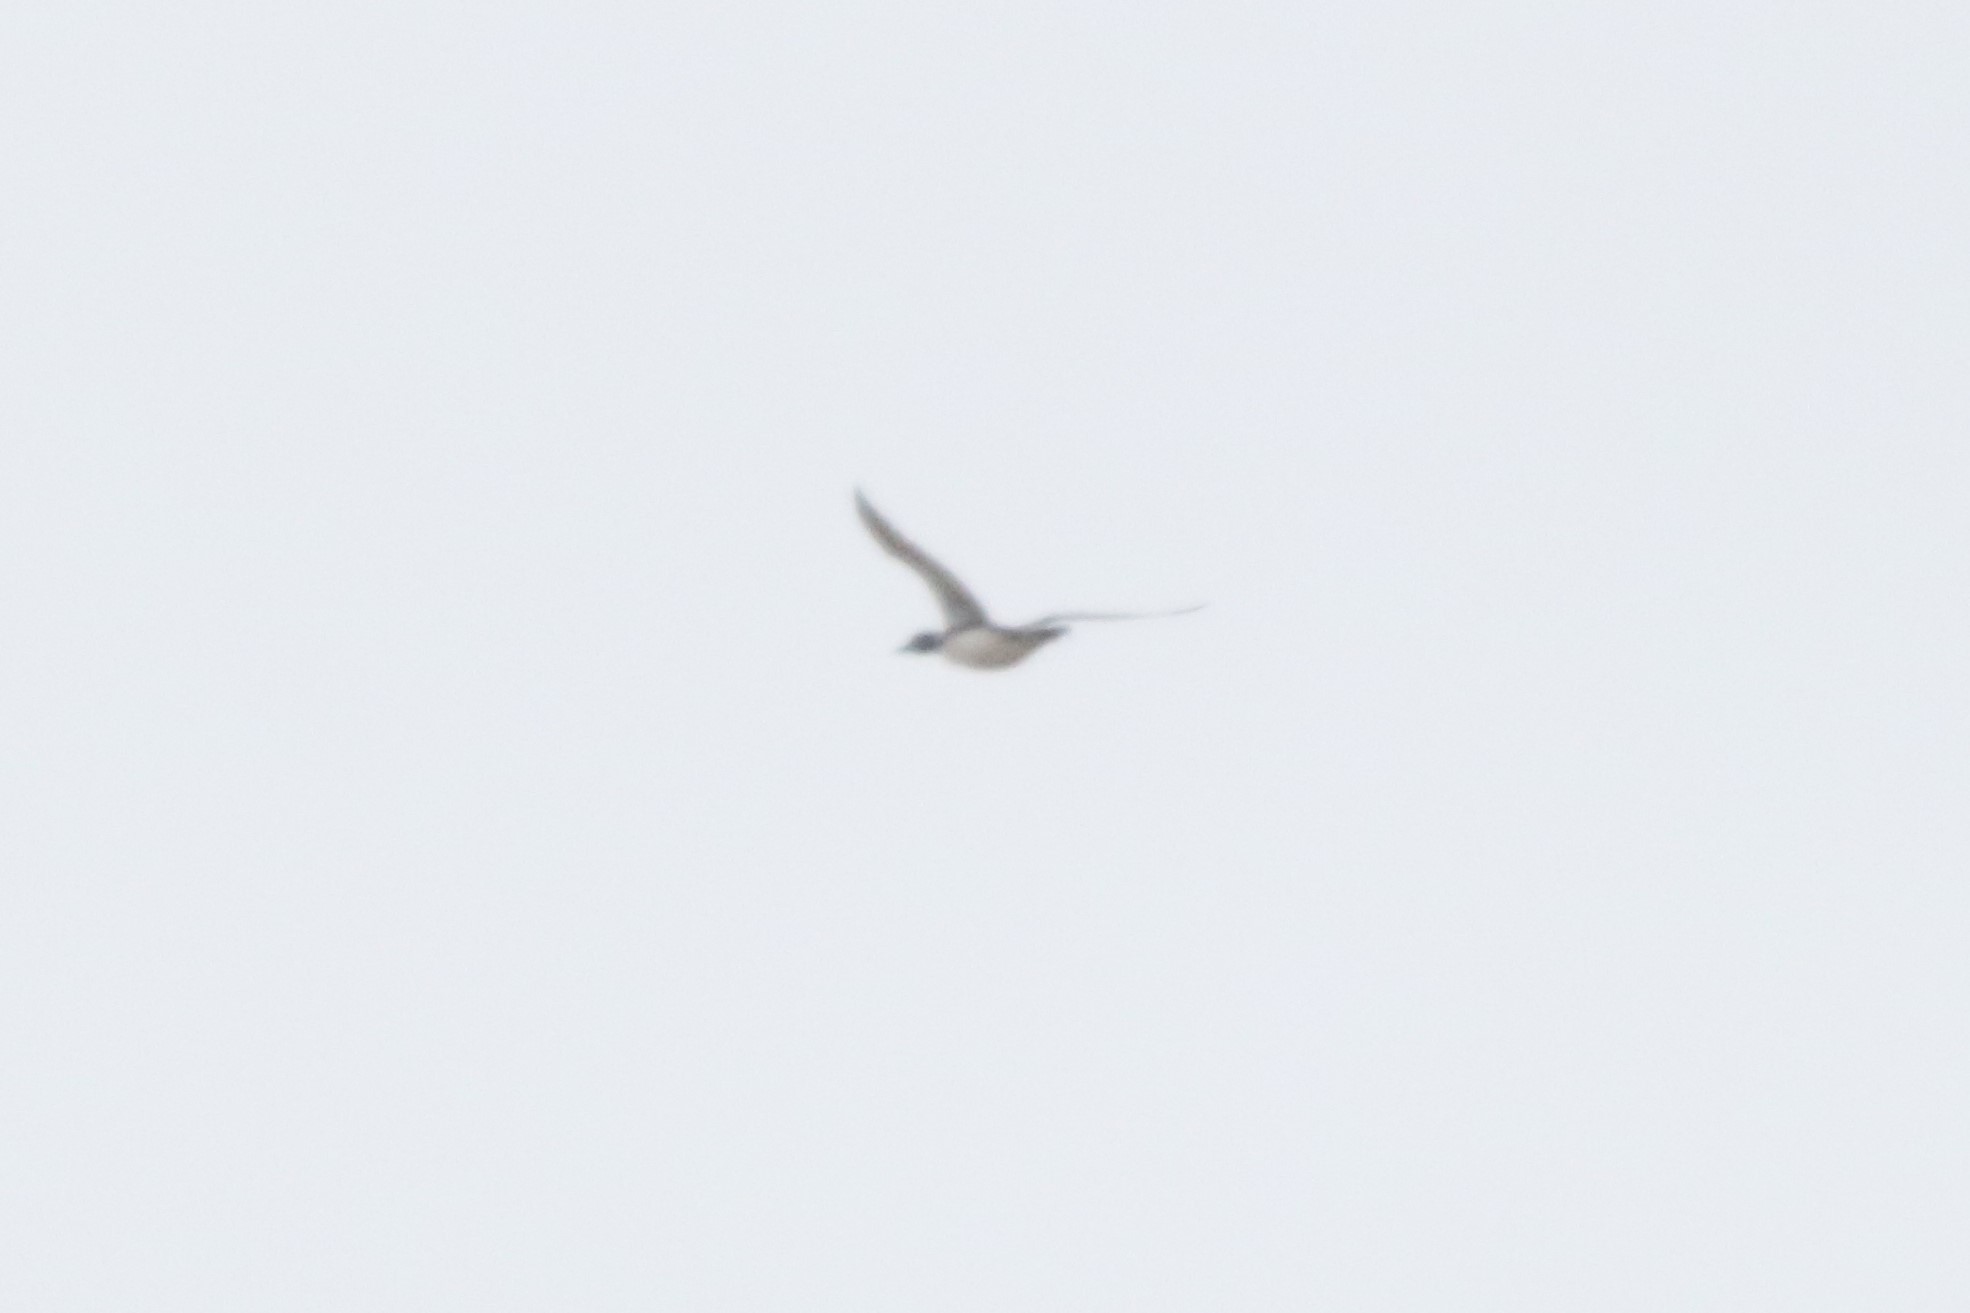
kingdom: Animalia
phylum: Chordata
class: Aves
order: Gaviiformes
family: Gaviidae
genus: Gavia
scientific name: Gavia immer
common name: Common loon
